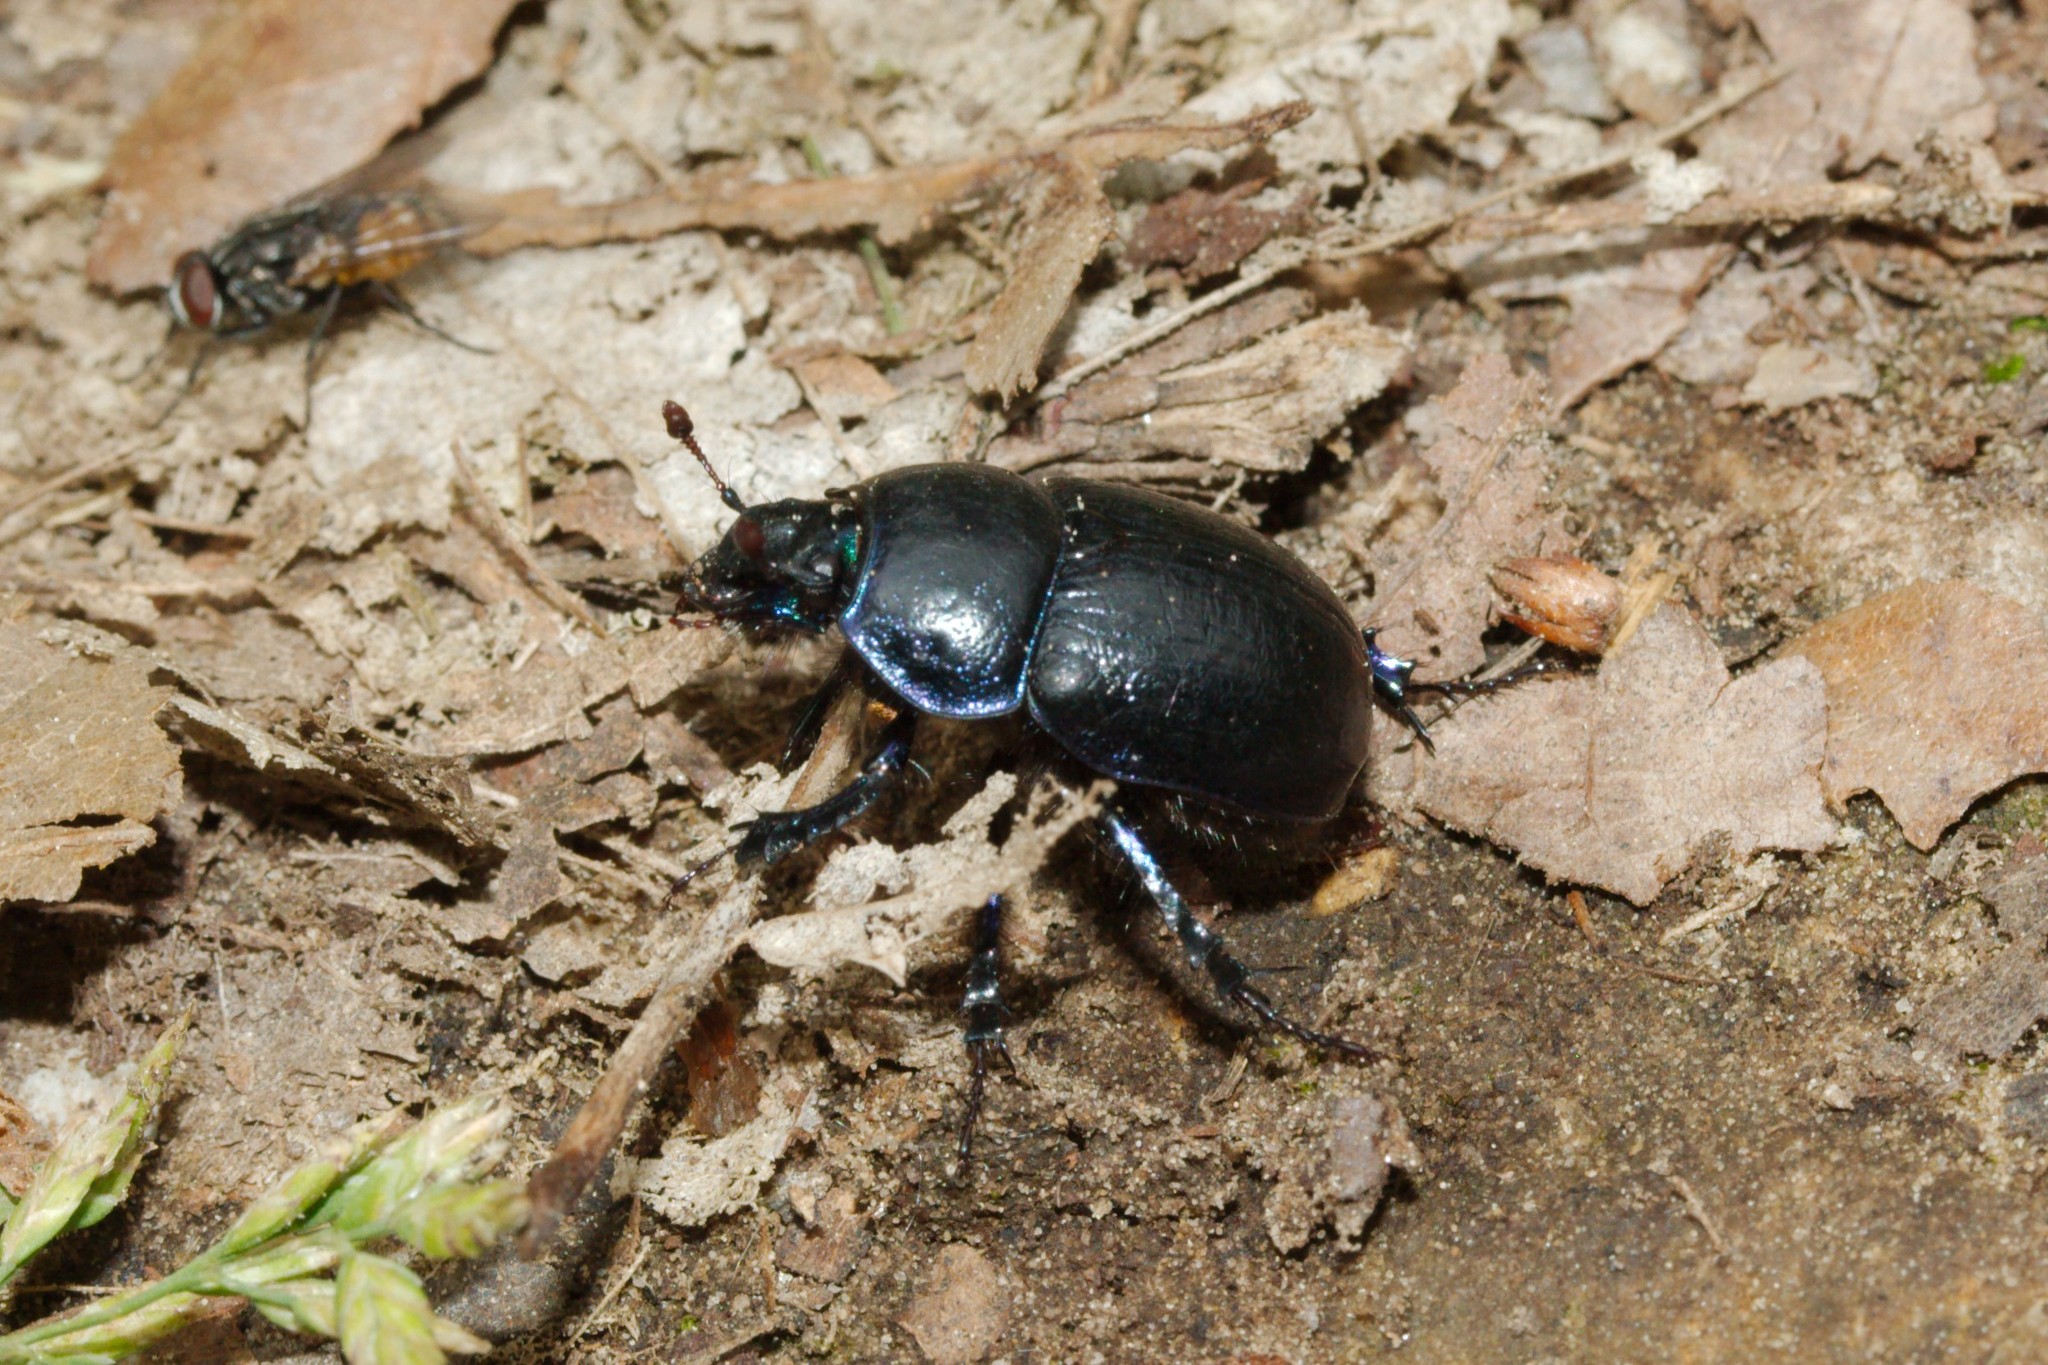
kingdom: Animalia
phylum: Arthropoda
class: Insecta
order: Coleoptera
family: Geotrupidae
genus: Anoplotrupes
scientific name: Anoplotrupes stercorosus
